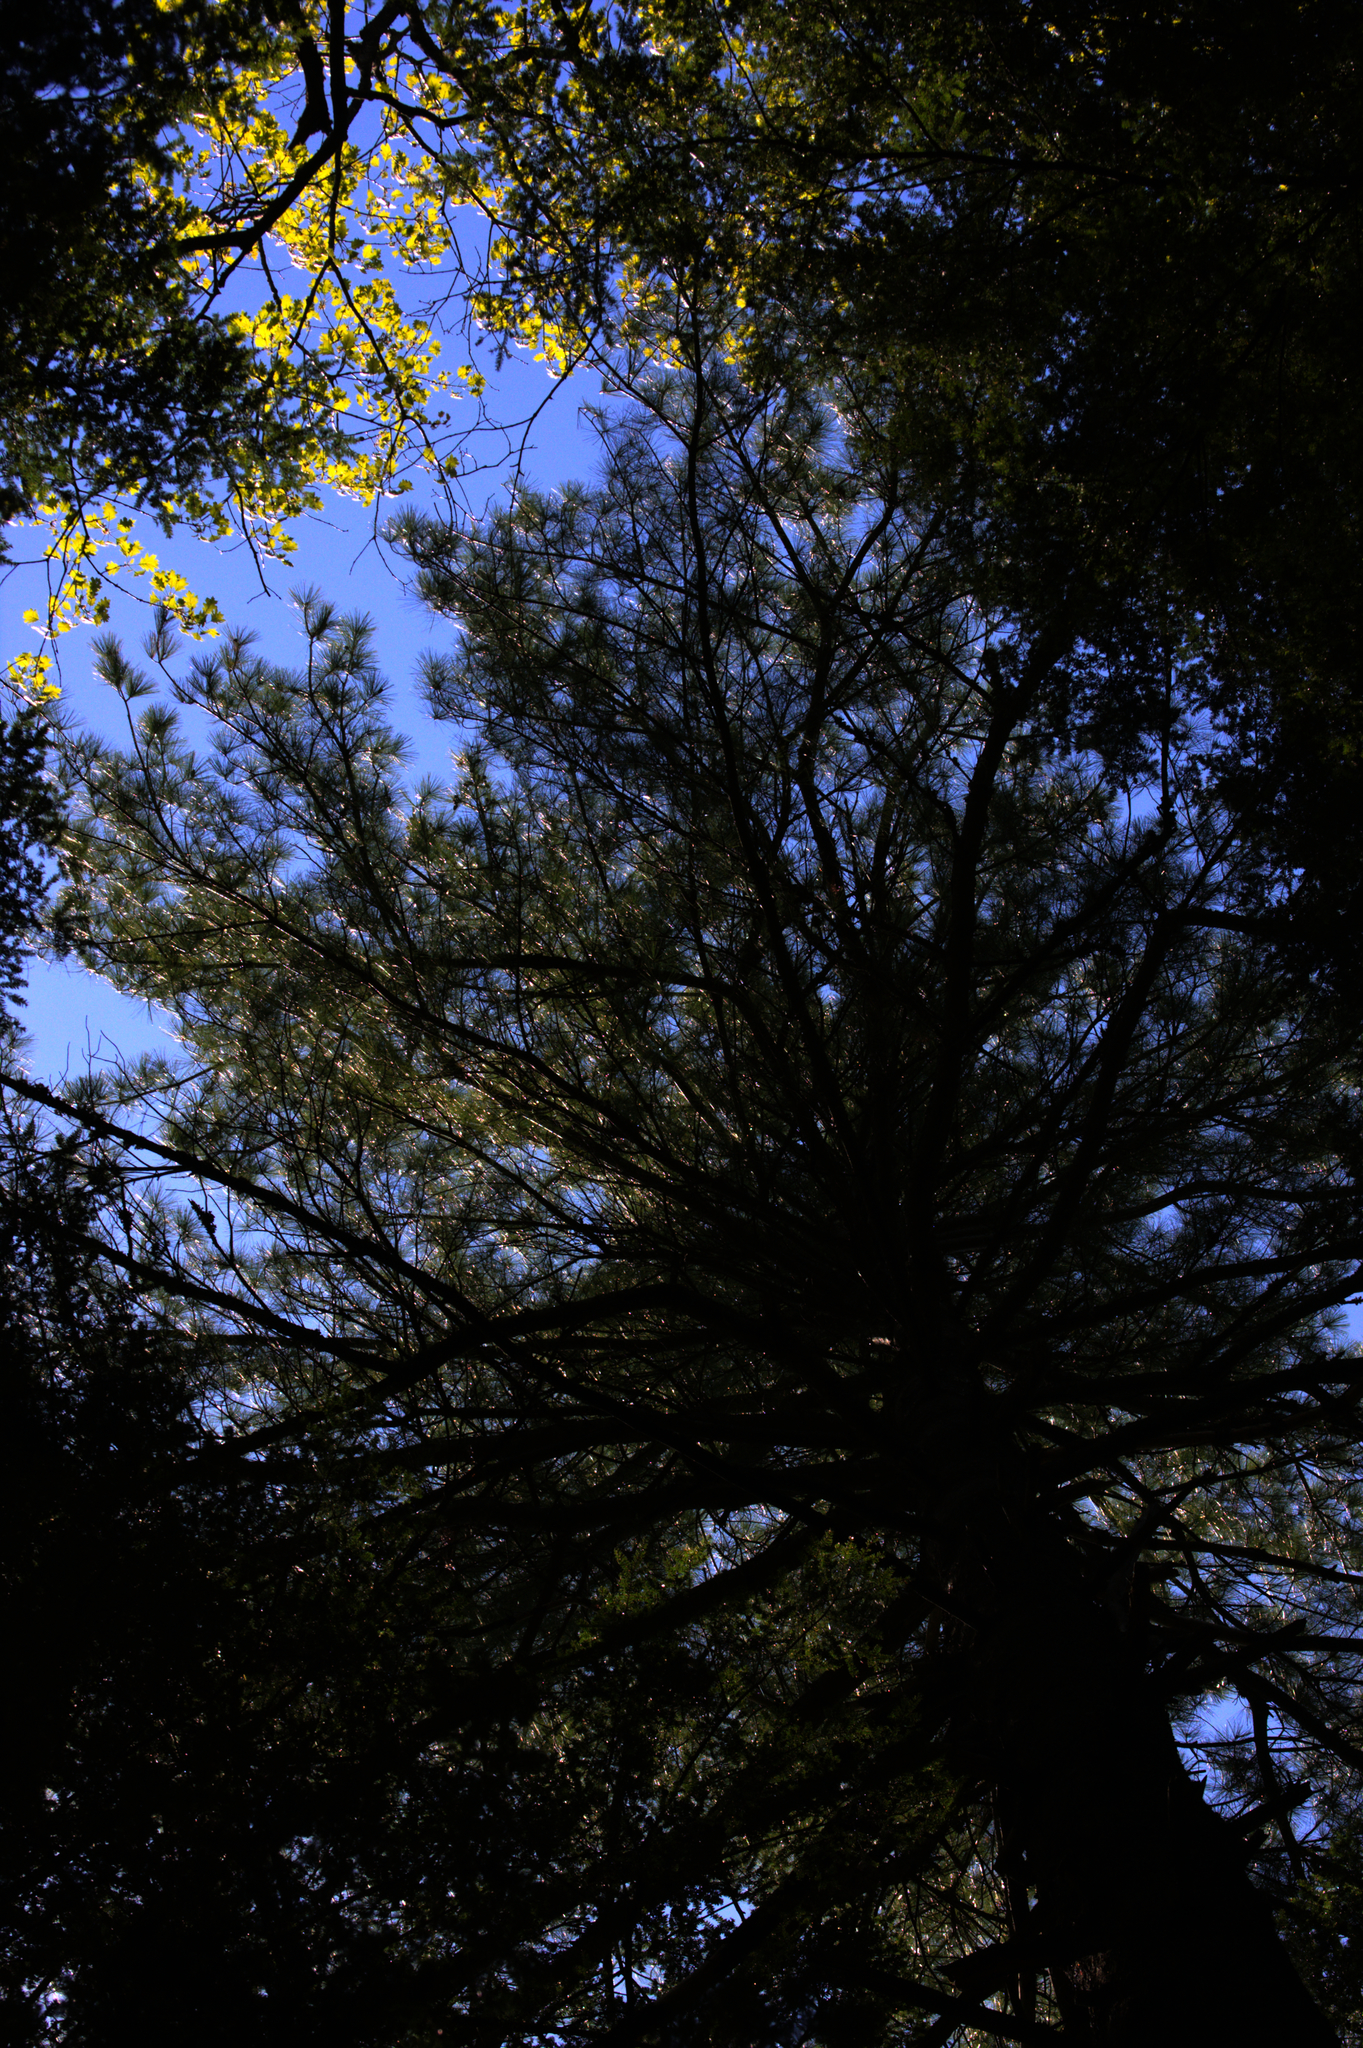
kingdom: Plantae
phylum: Tracheophyta
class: Pinopsida
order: Pinales
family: Pinaceae
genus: Pinus
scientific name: Pinus strobus
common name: Weymouth pine
